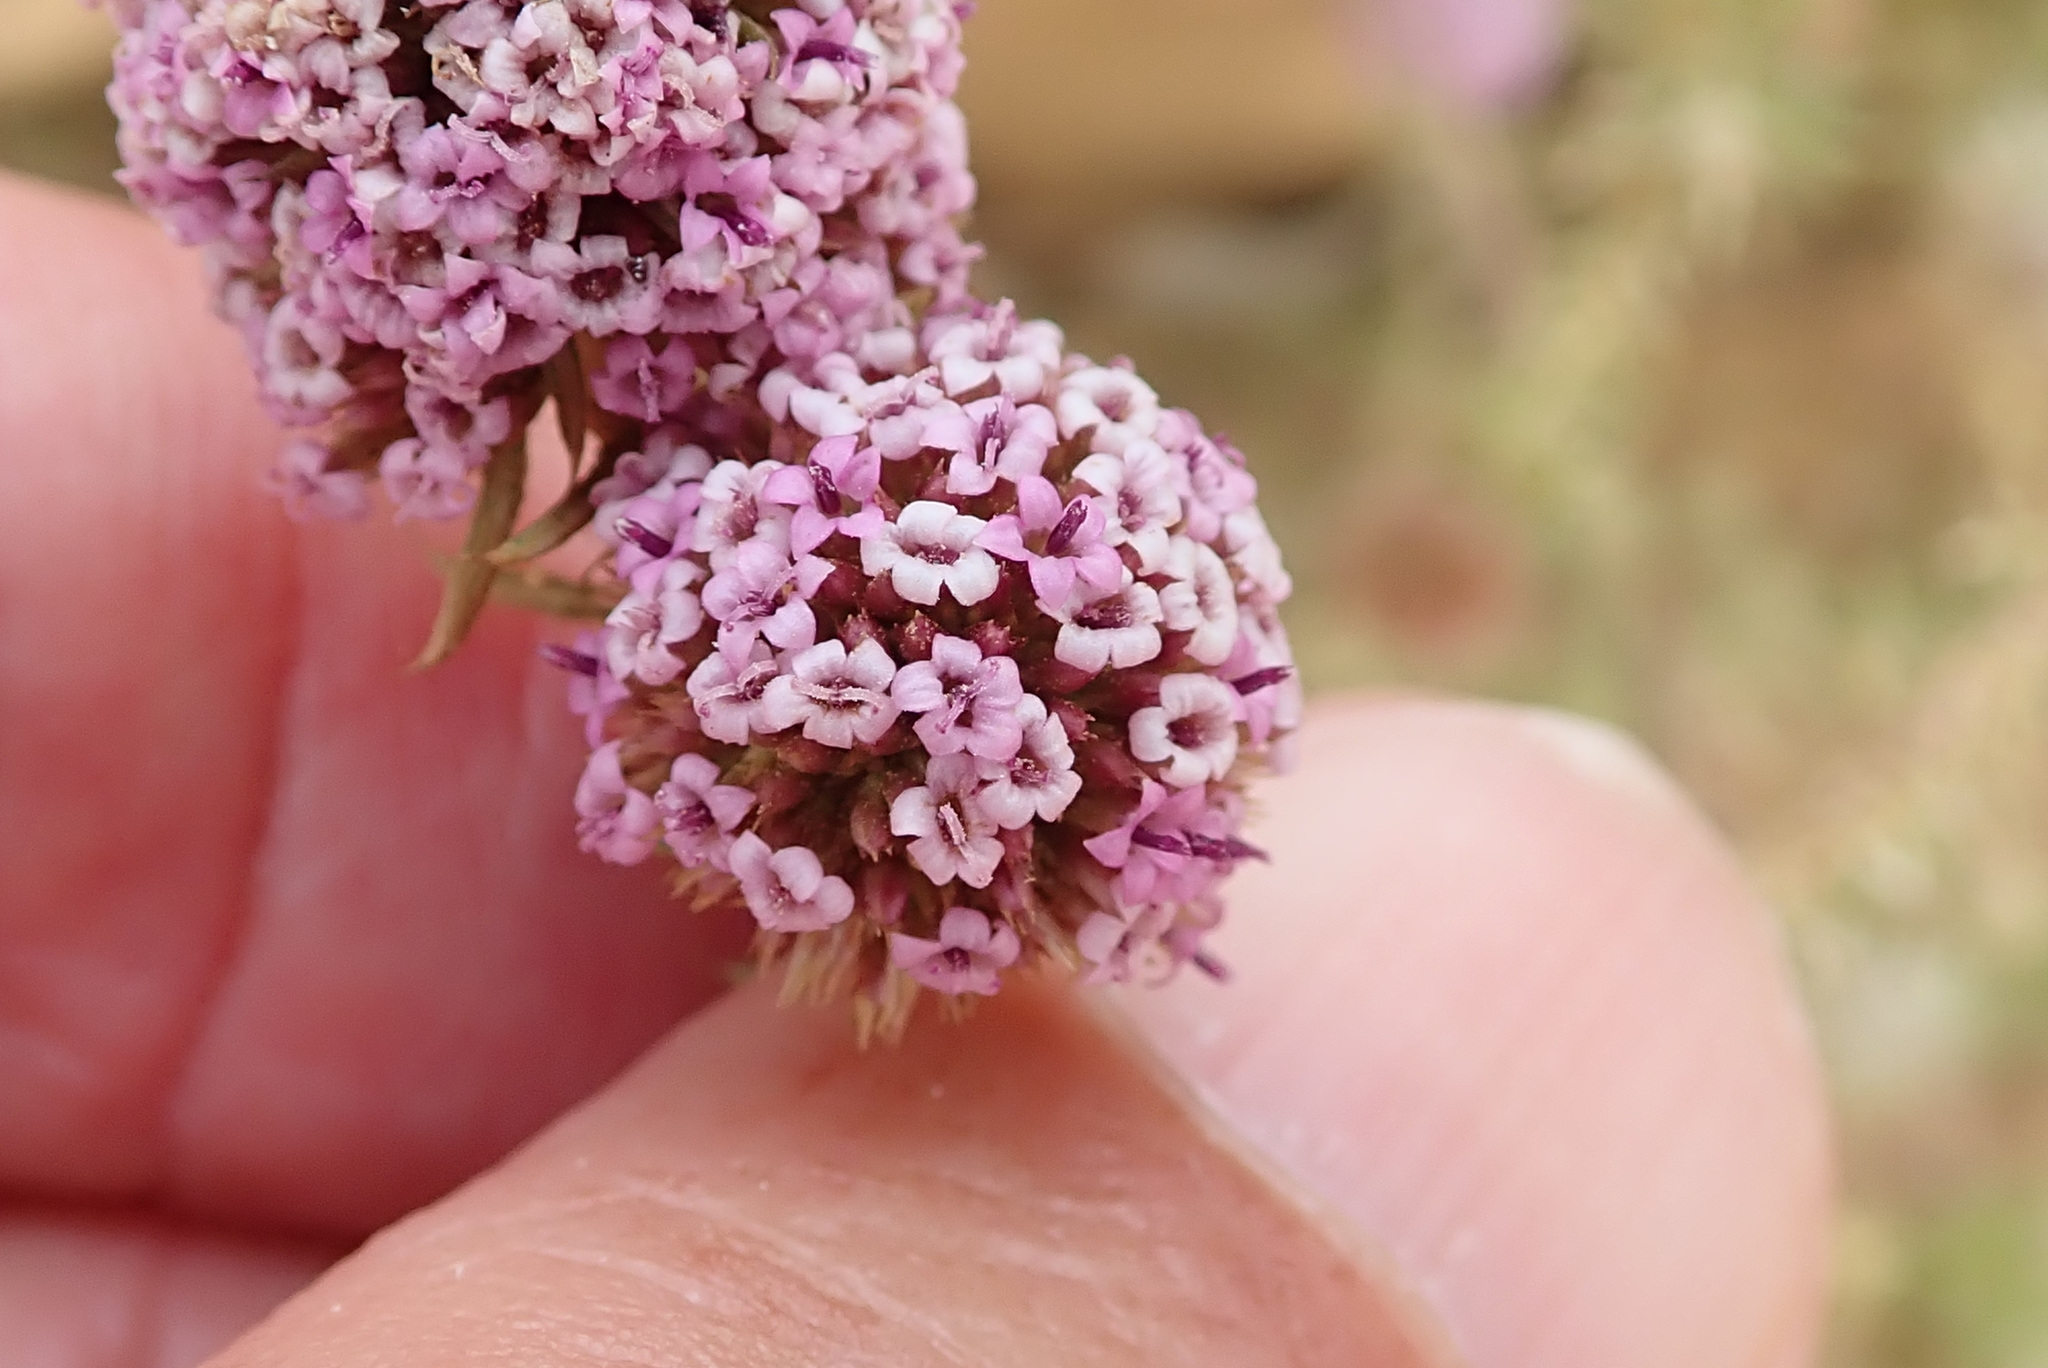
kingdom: Plantae
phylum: Tracheophyta
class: Magnoliopsida
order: Asterales
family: Asteraceae
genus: Stoebe
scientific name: Stoebe capitata
